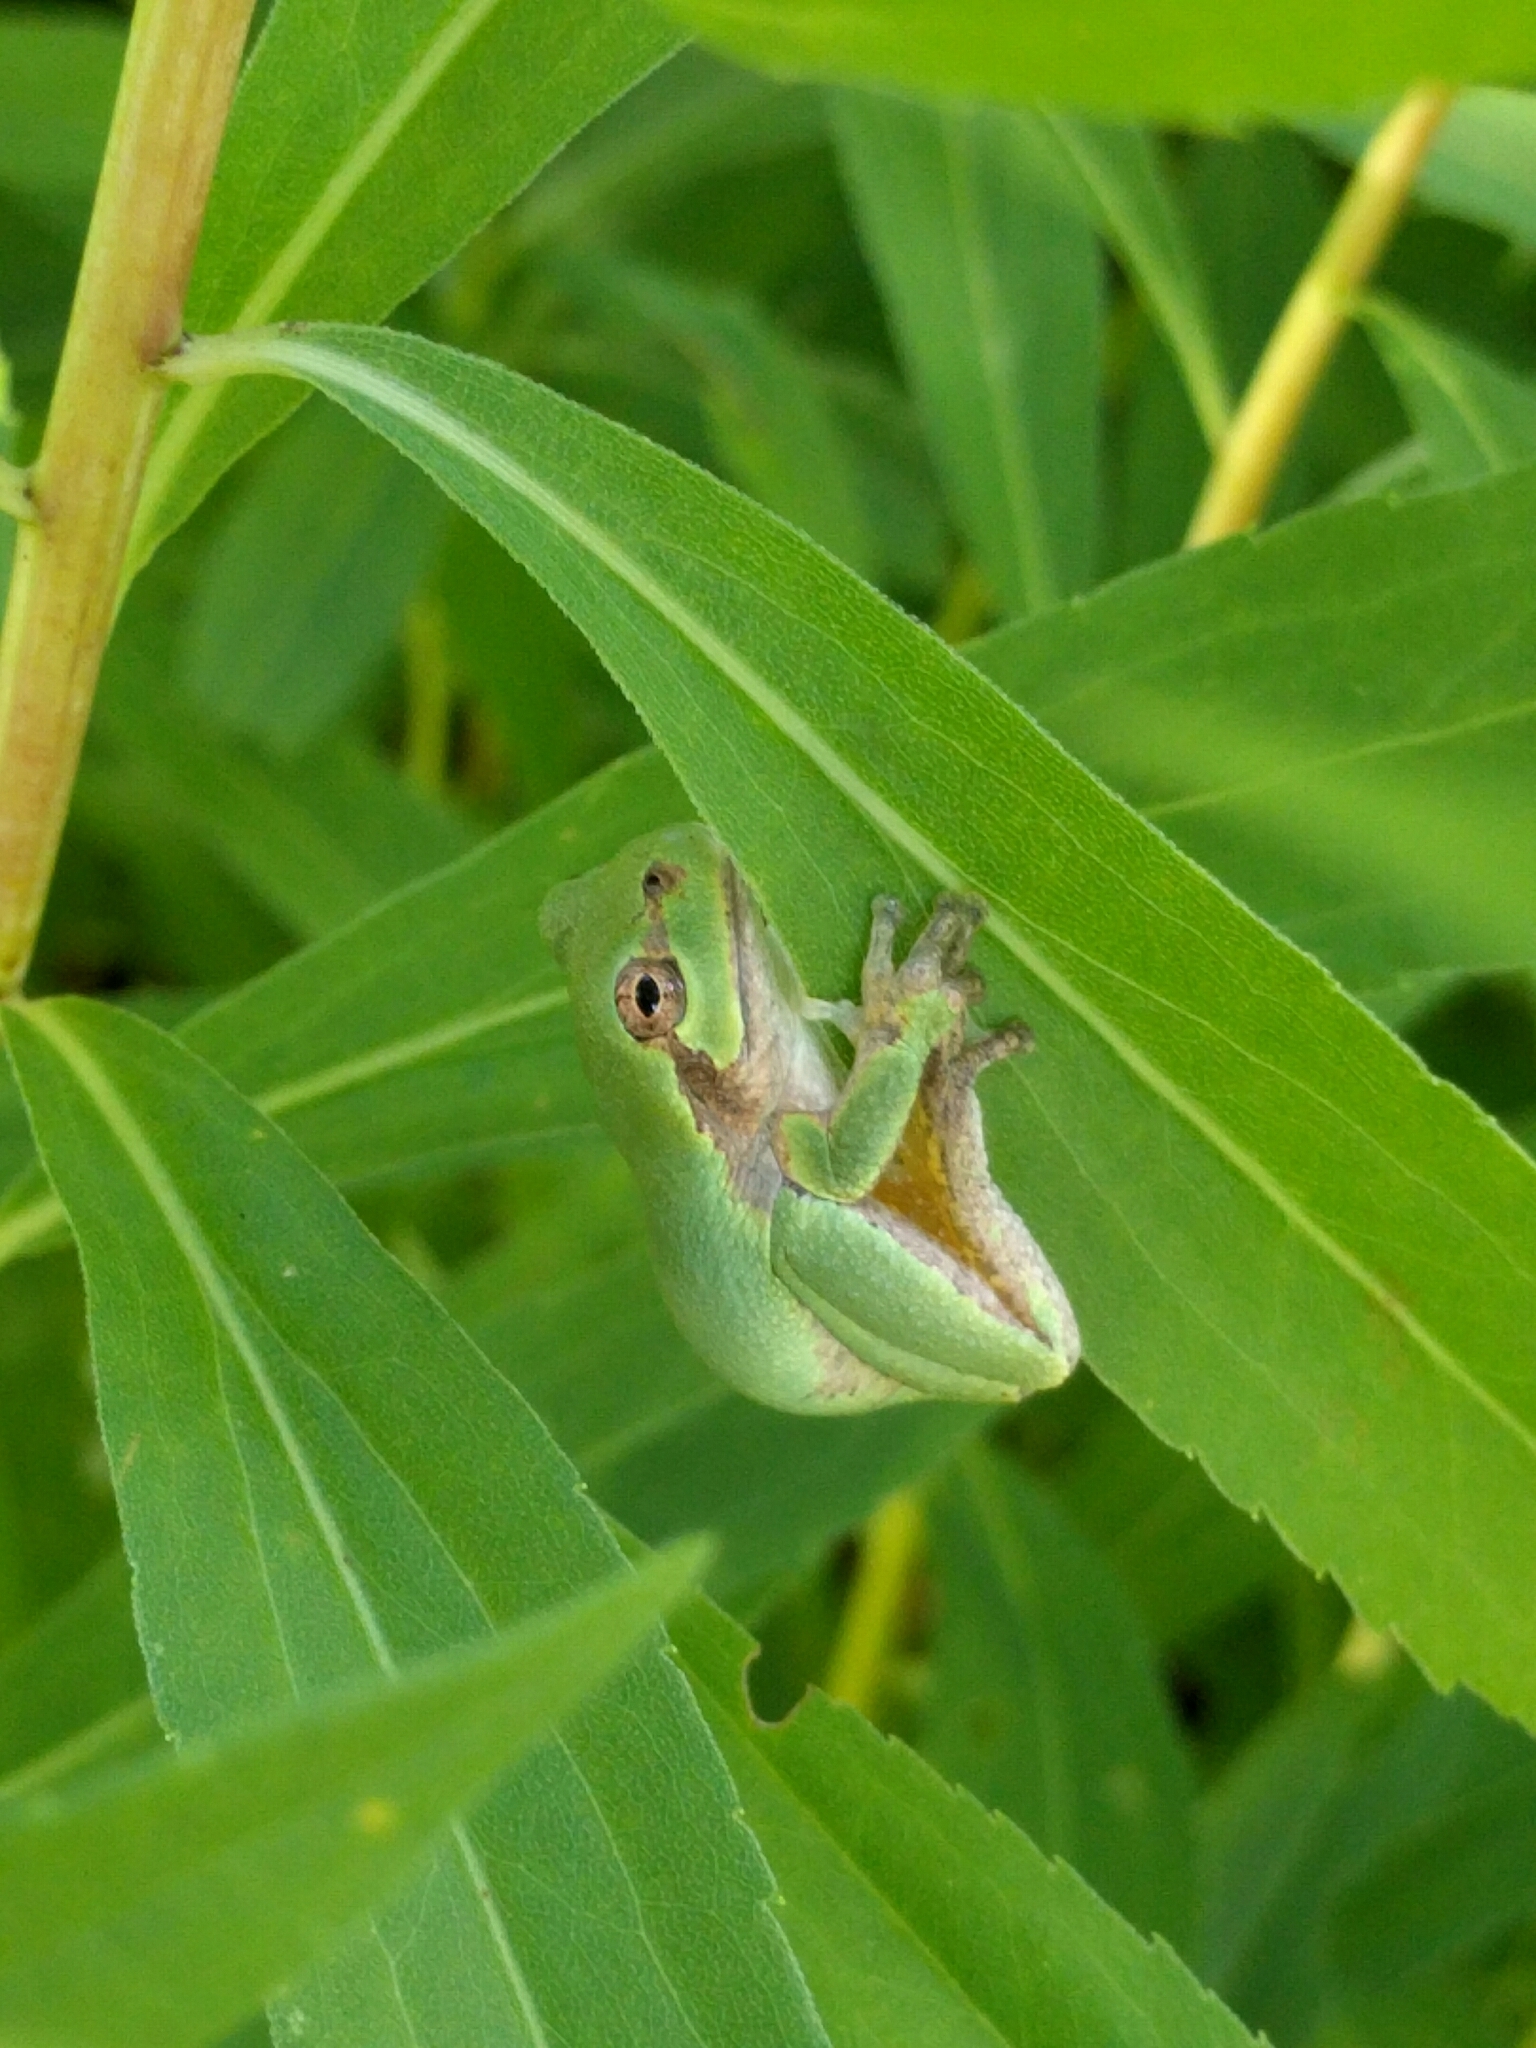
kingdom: Animalia
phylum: Chordata
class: Amphibia
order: Anura
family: Hylidae
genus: Hyla
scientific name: Hyla
